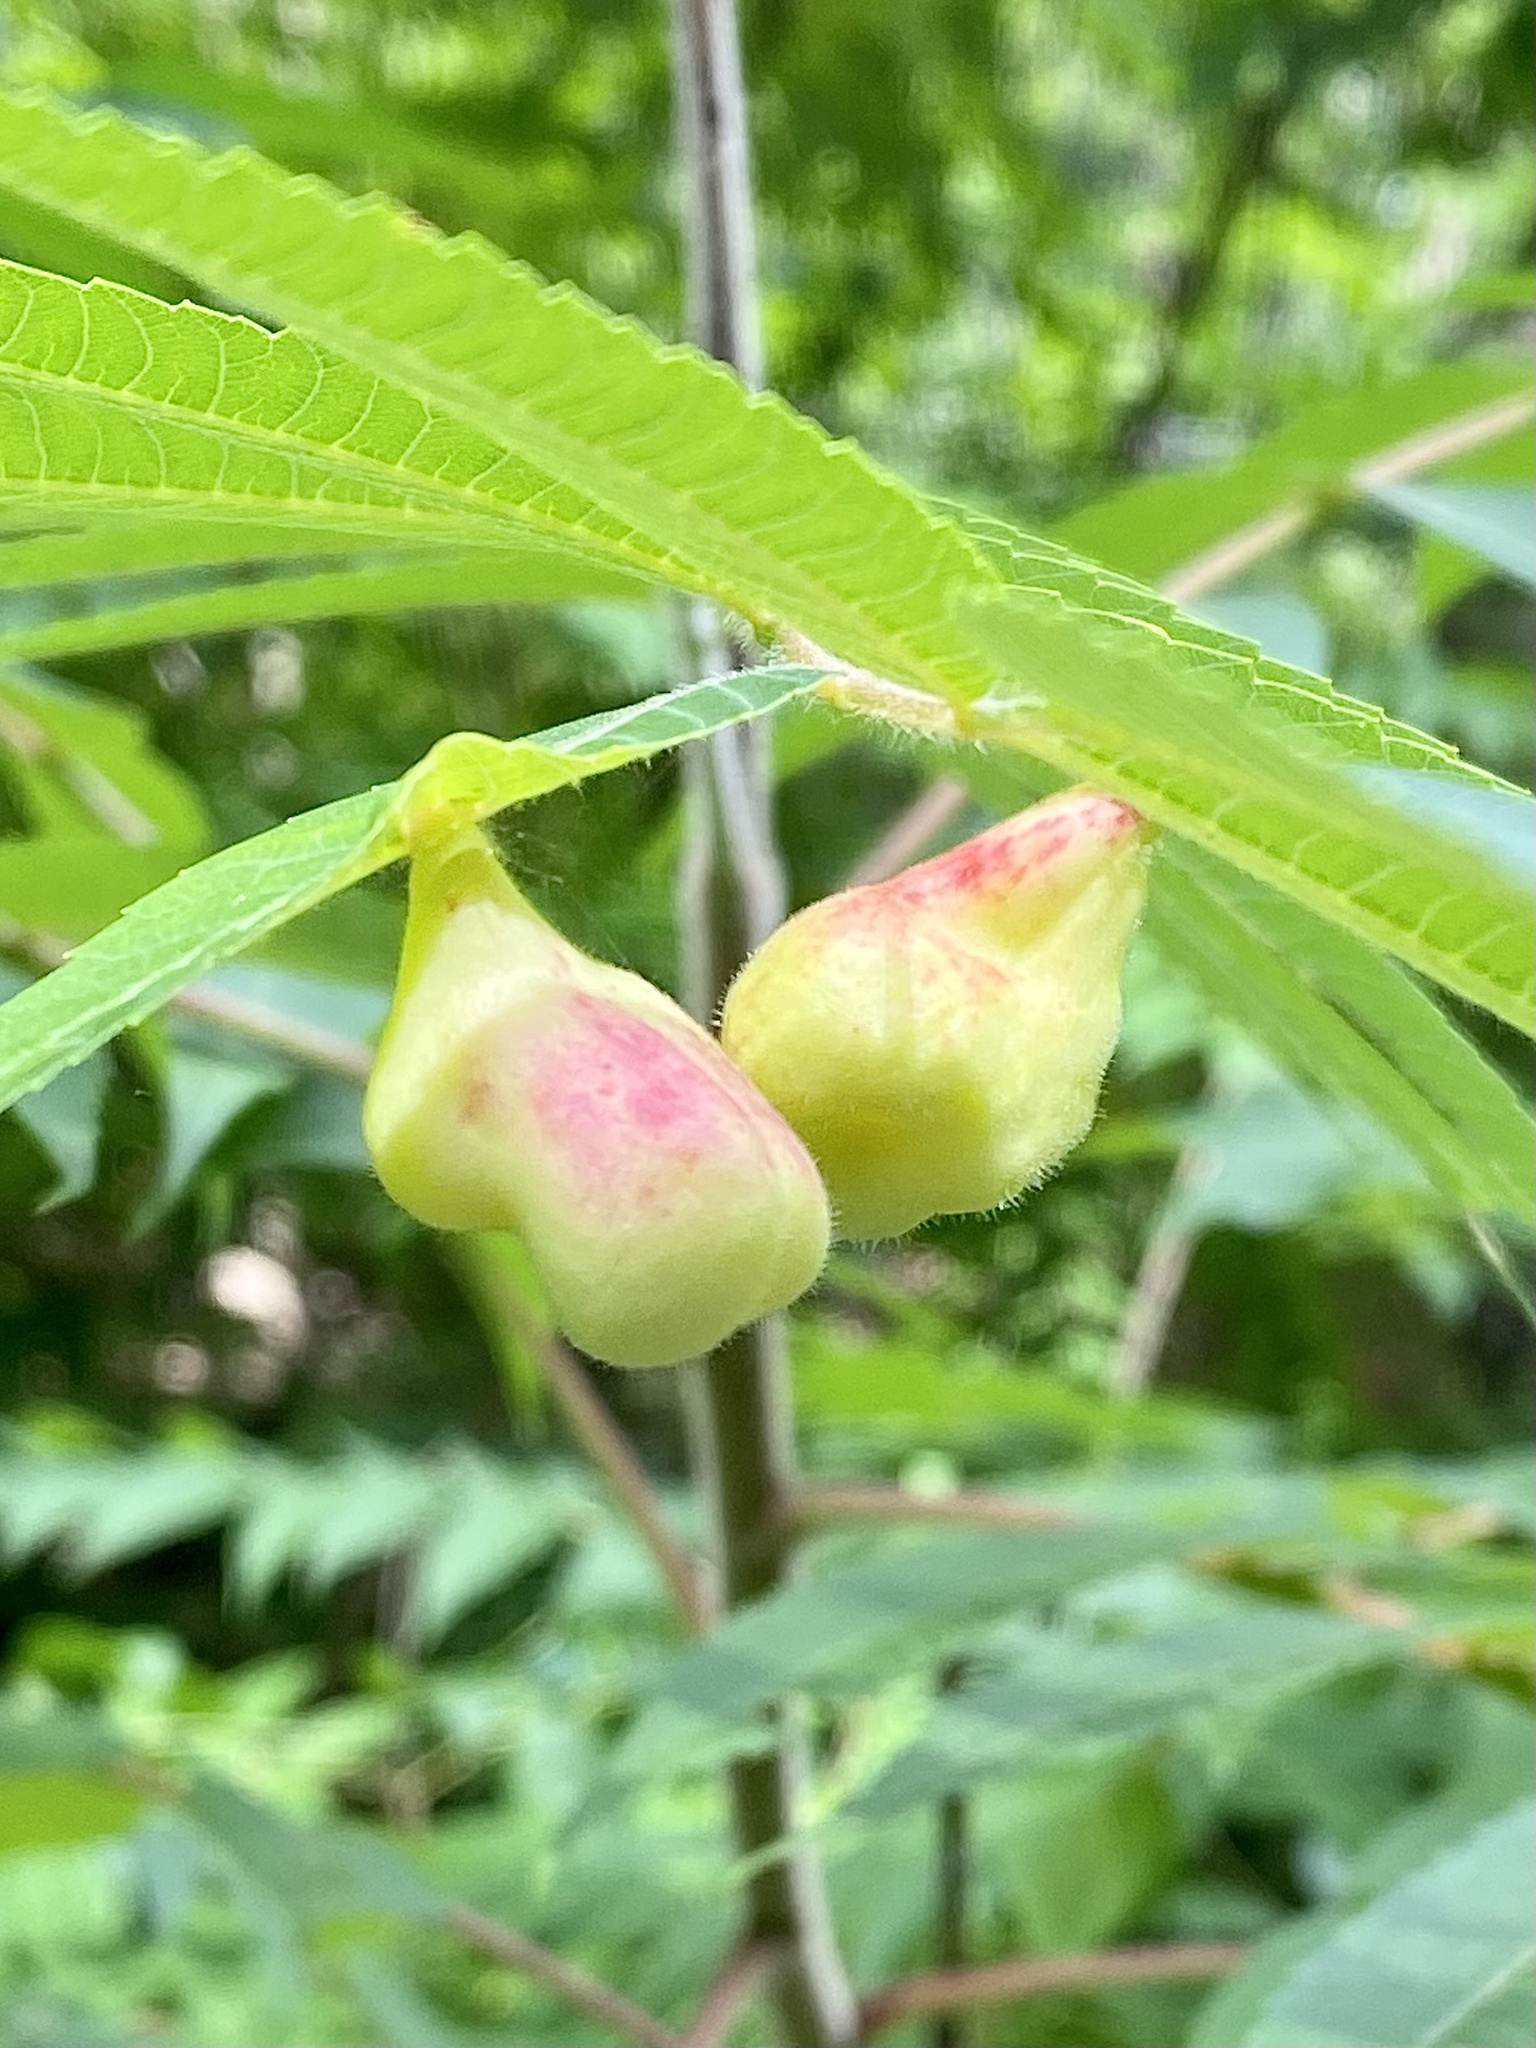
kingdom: Animalia
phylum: Arthropoda
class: Insecta
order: Hemiptera
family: Aphididae
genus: Melaphis
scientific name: Melaphis rhois
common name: Sumac gall aphid
